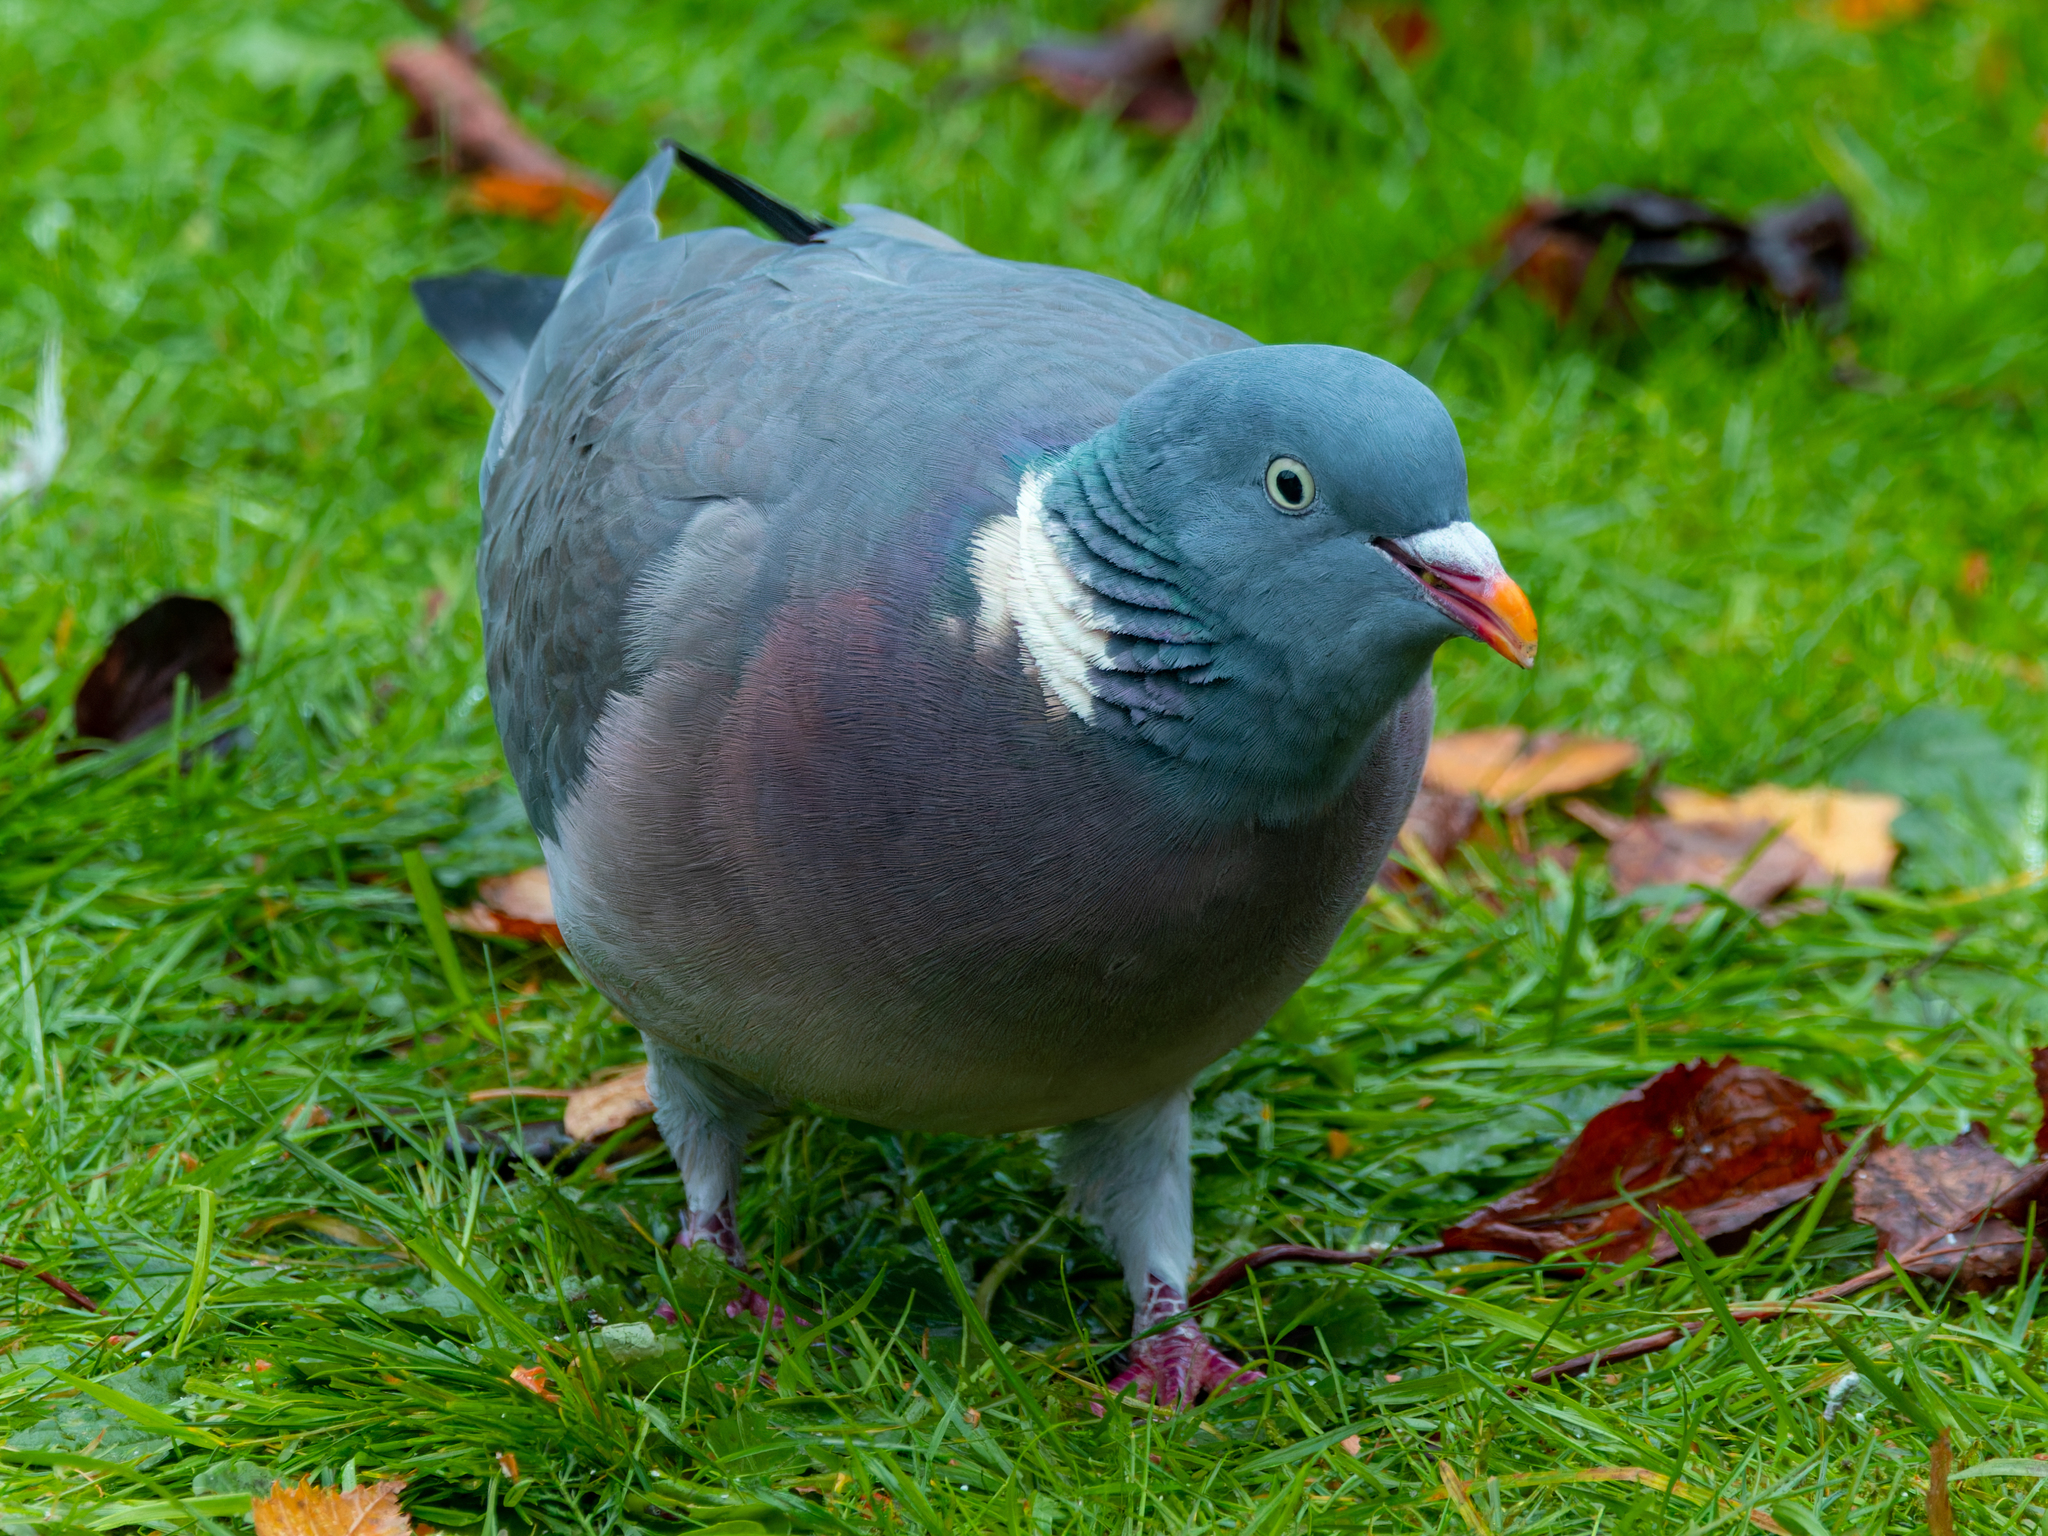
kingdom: Animalia
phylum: Chordata
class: Aves
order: Columbiformes
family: Columbidae
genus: Columba
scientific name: Columba palumbus
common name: Common wood pigeon
